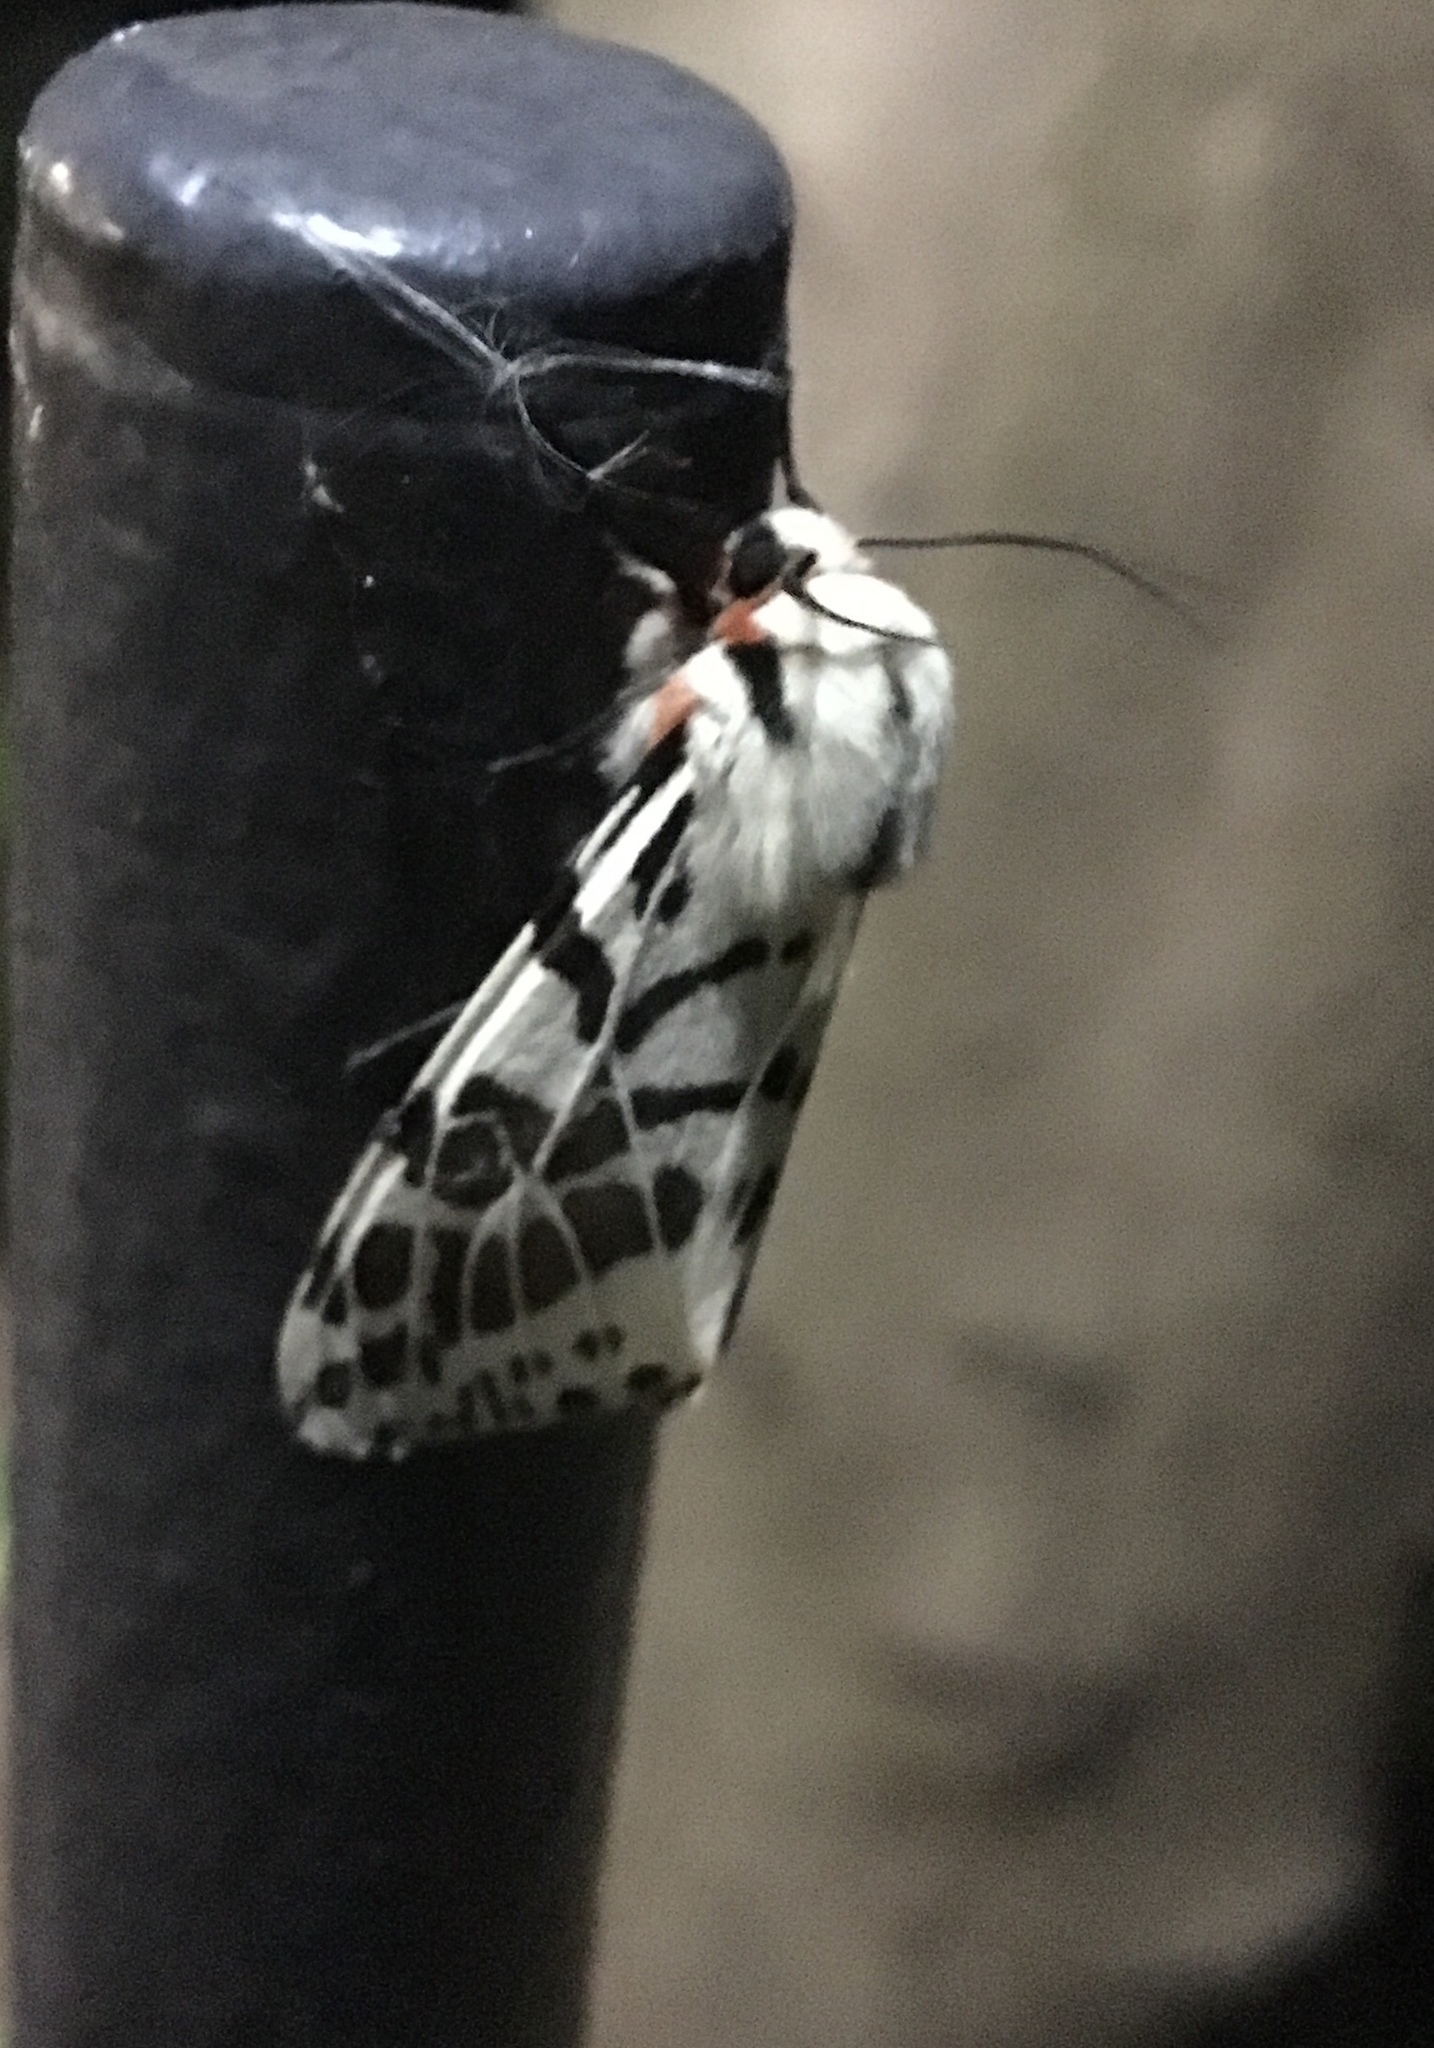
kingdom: Animalia
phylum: Arthropoda
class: Insecta
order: Lepidoptera
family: Erebidae
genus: Ardices
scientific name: Ardices glatignyi
